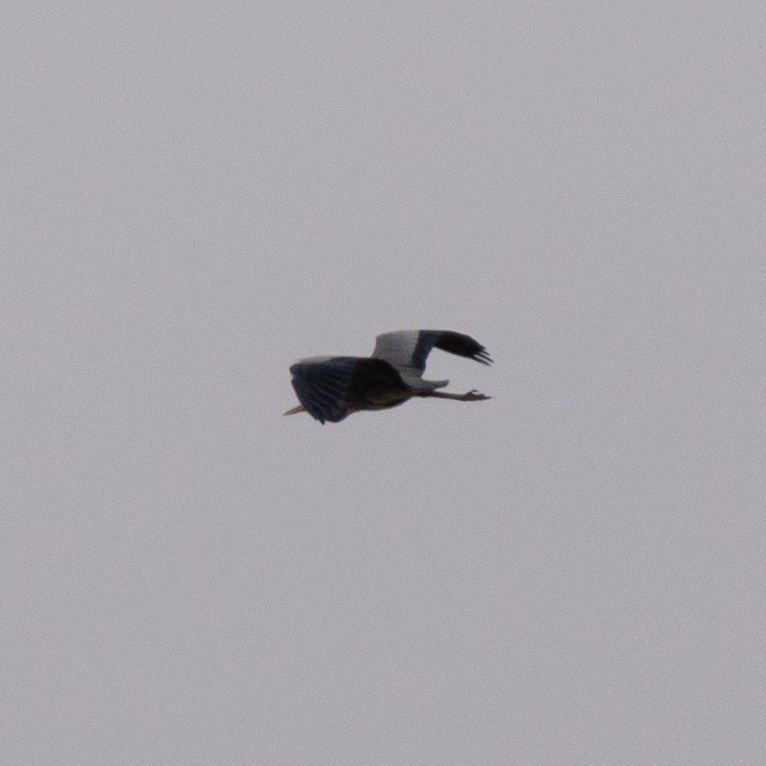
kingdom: Animalia
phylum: Chordata
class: Aves
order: Pelecaniformes
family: Ardeidae
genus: Ardea
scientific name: Ardea cinerea
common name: Grey heron
